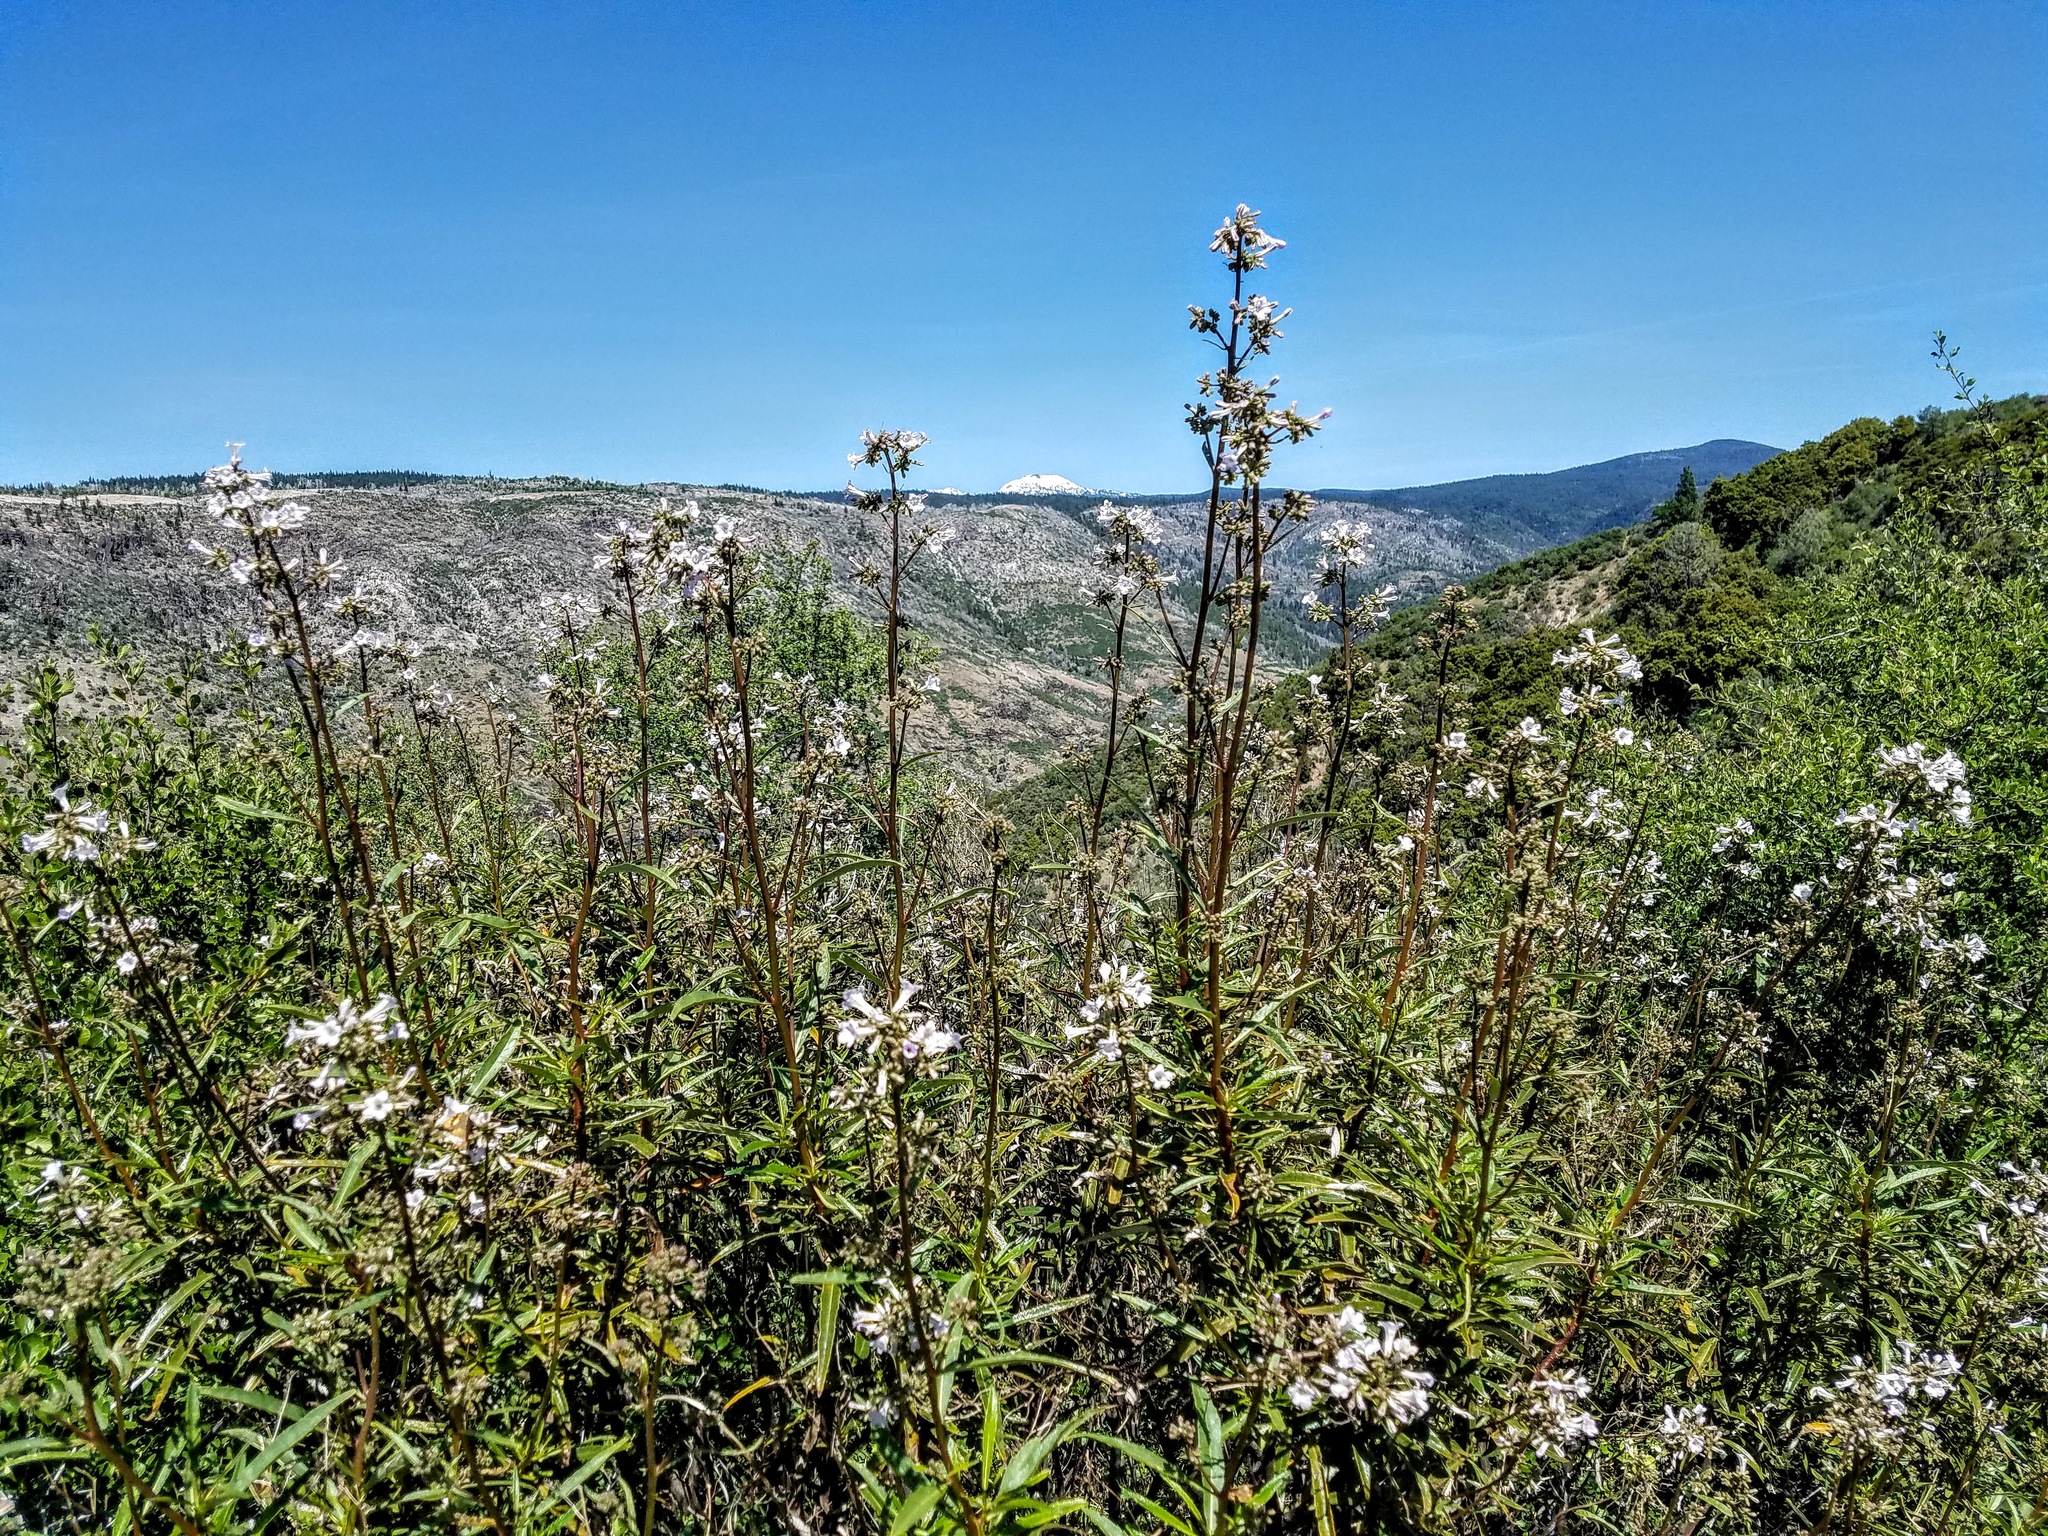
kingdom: Plantae
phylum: Tracheophyta
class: Magnoliopsida
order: Boraginales
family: Namaceae
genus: Eriodictyon
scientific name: Eriodictyon californicum
